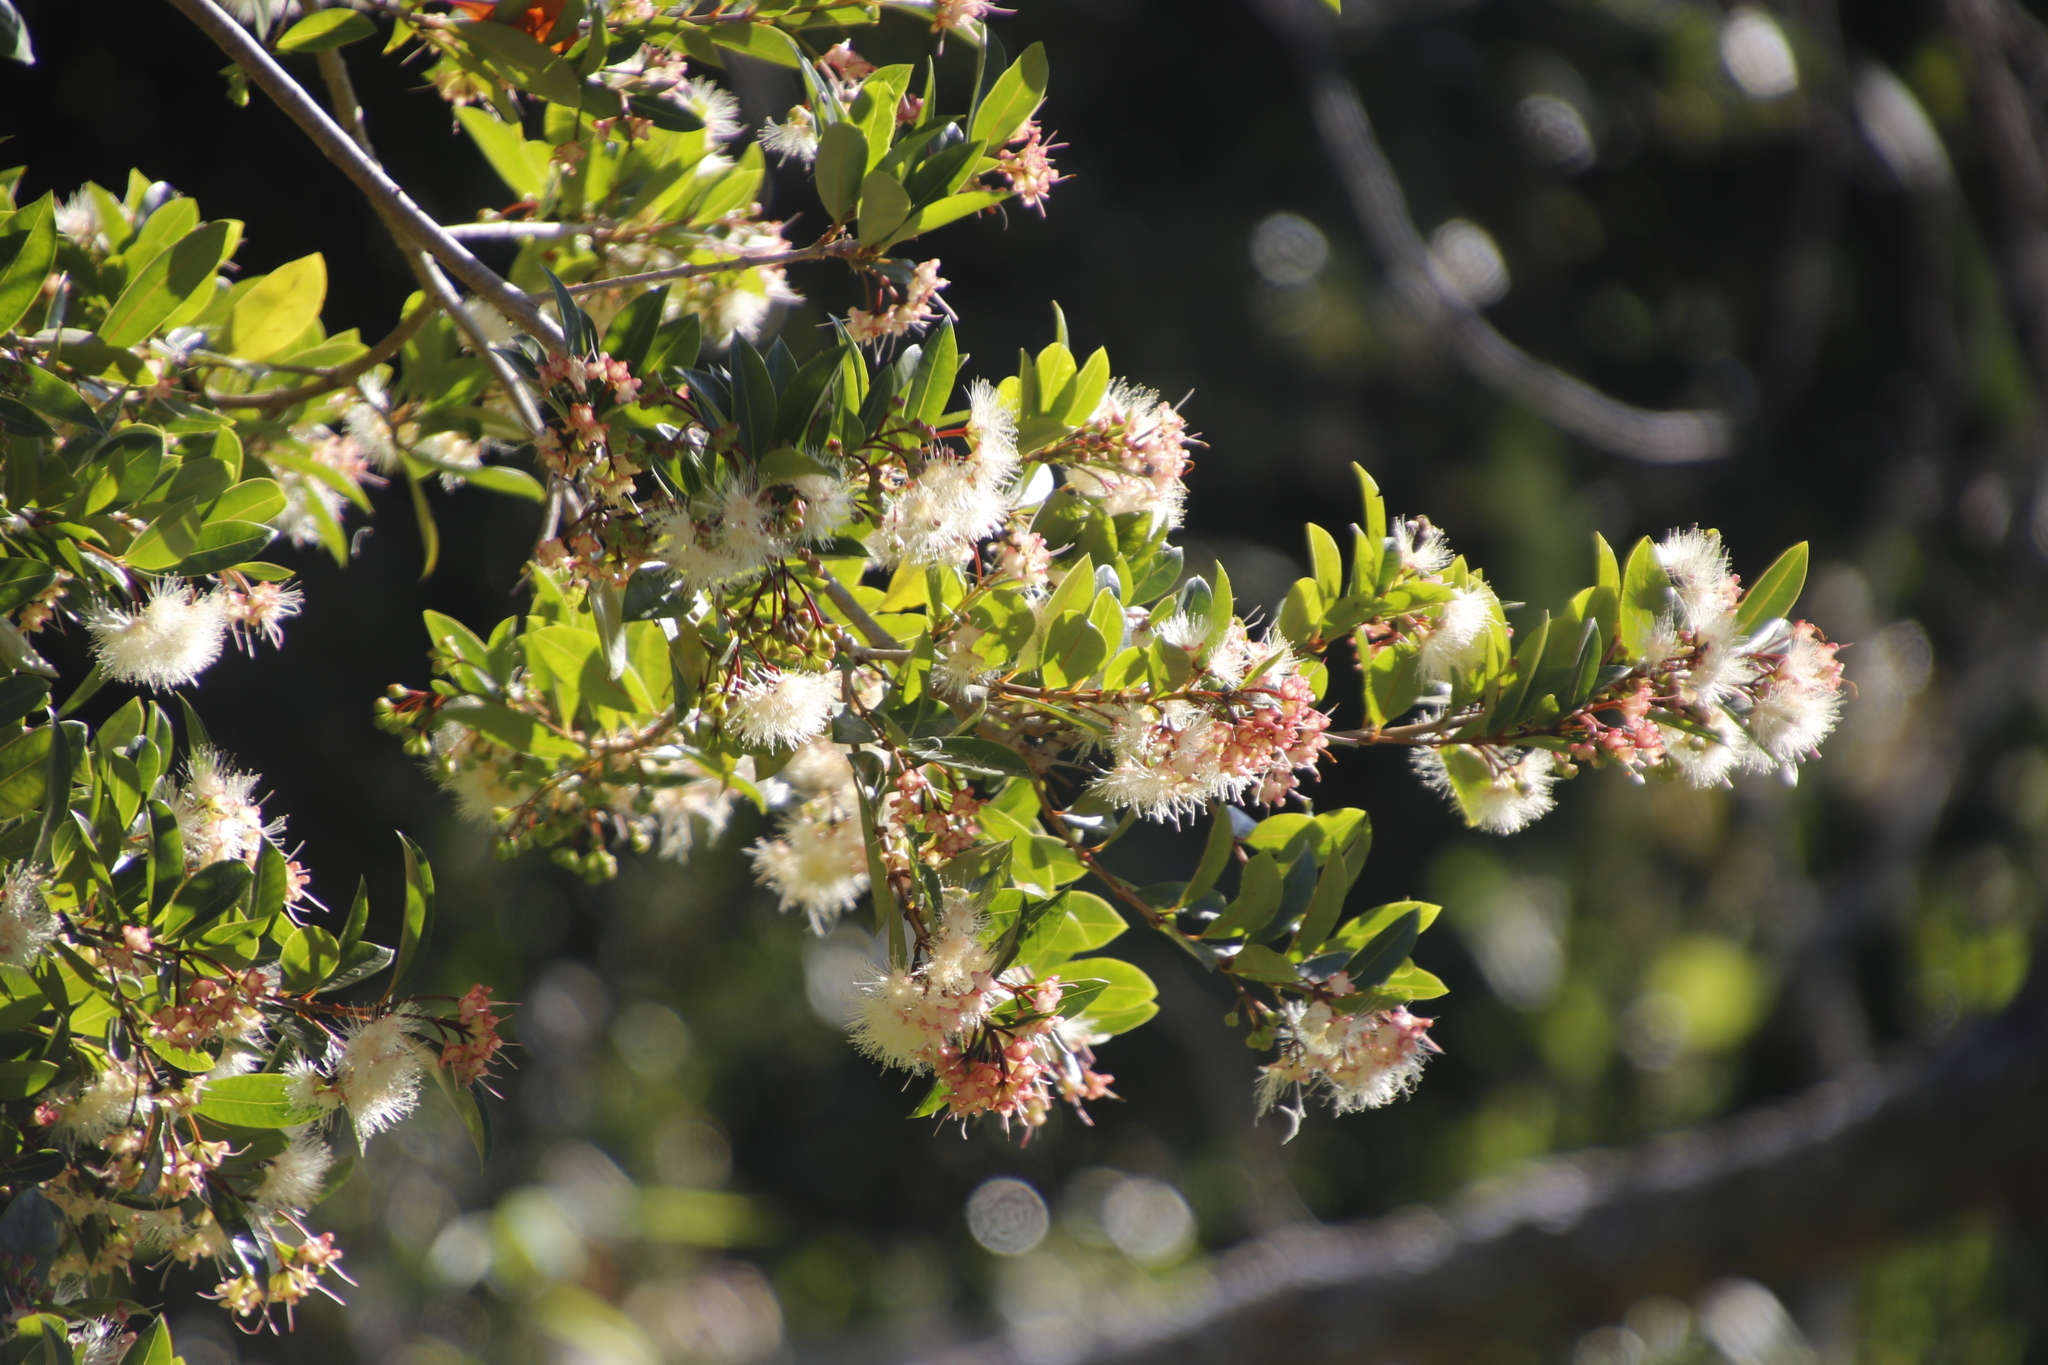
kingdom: Plantae
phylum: Tracheophyta
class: Magnoliopsida
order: Myrtales
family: Myrtaceae
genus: Syzygium
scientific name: Syzygium australe
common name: Australian brush-cherry
